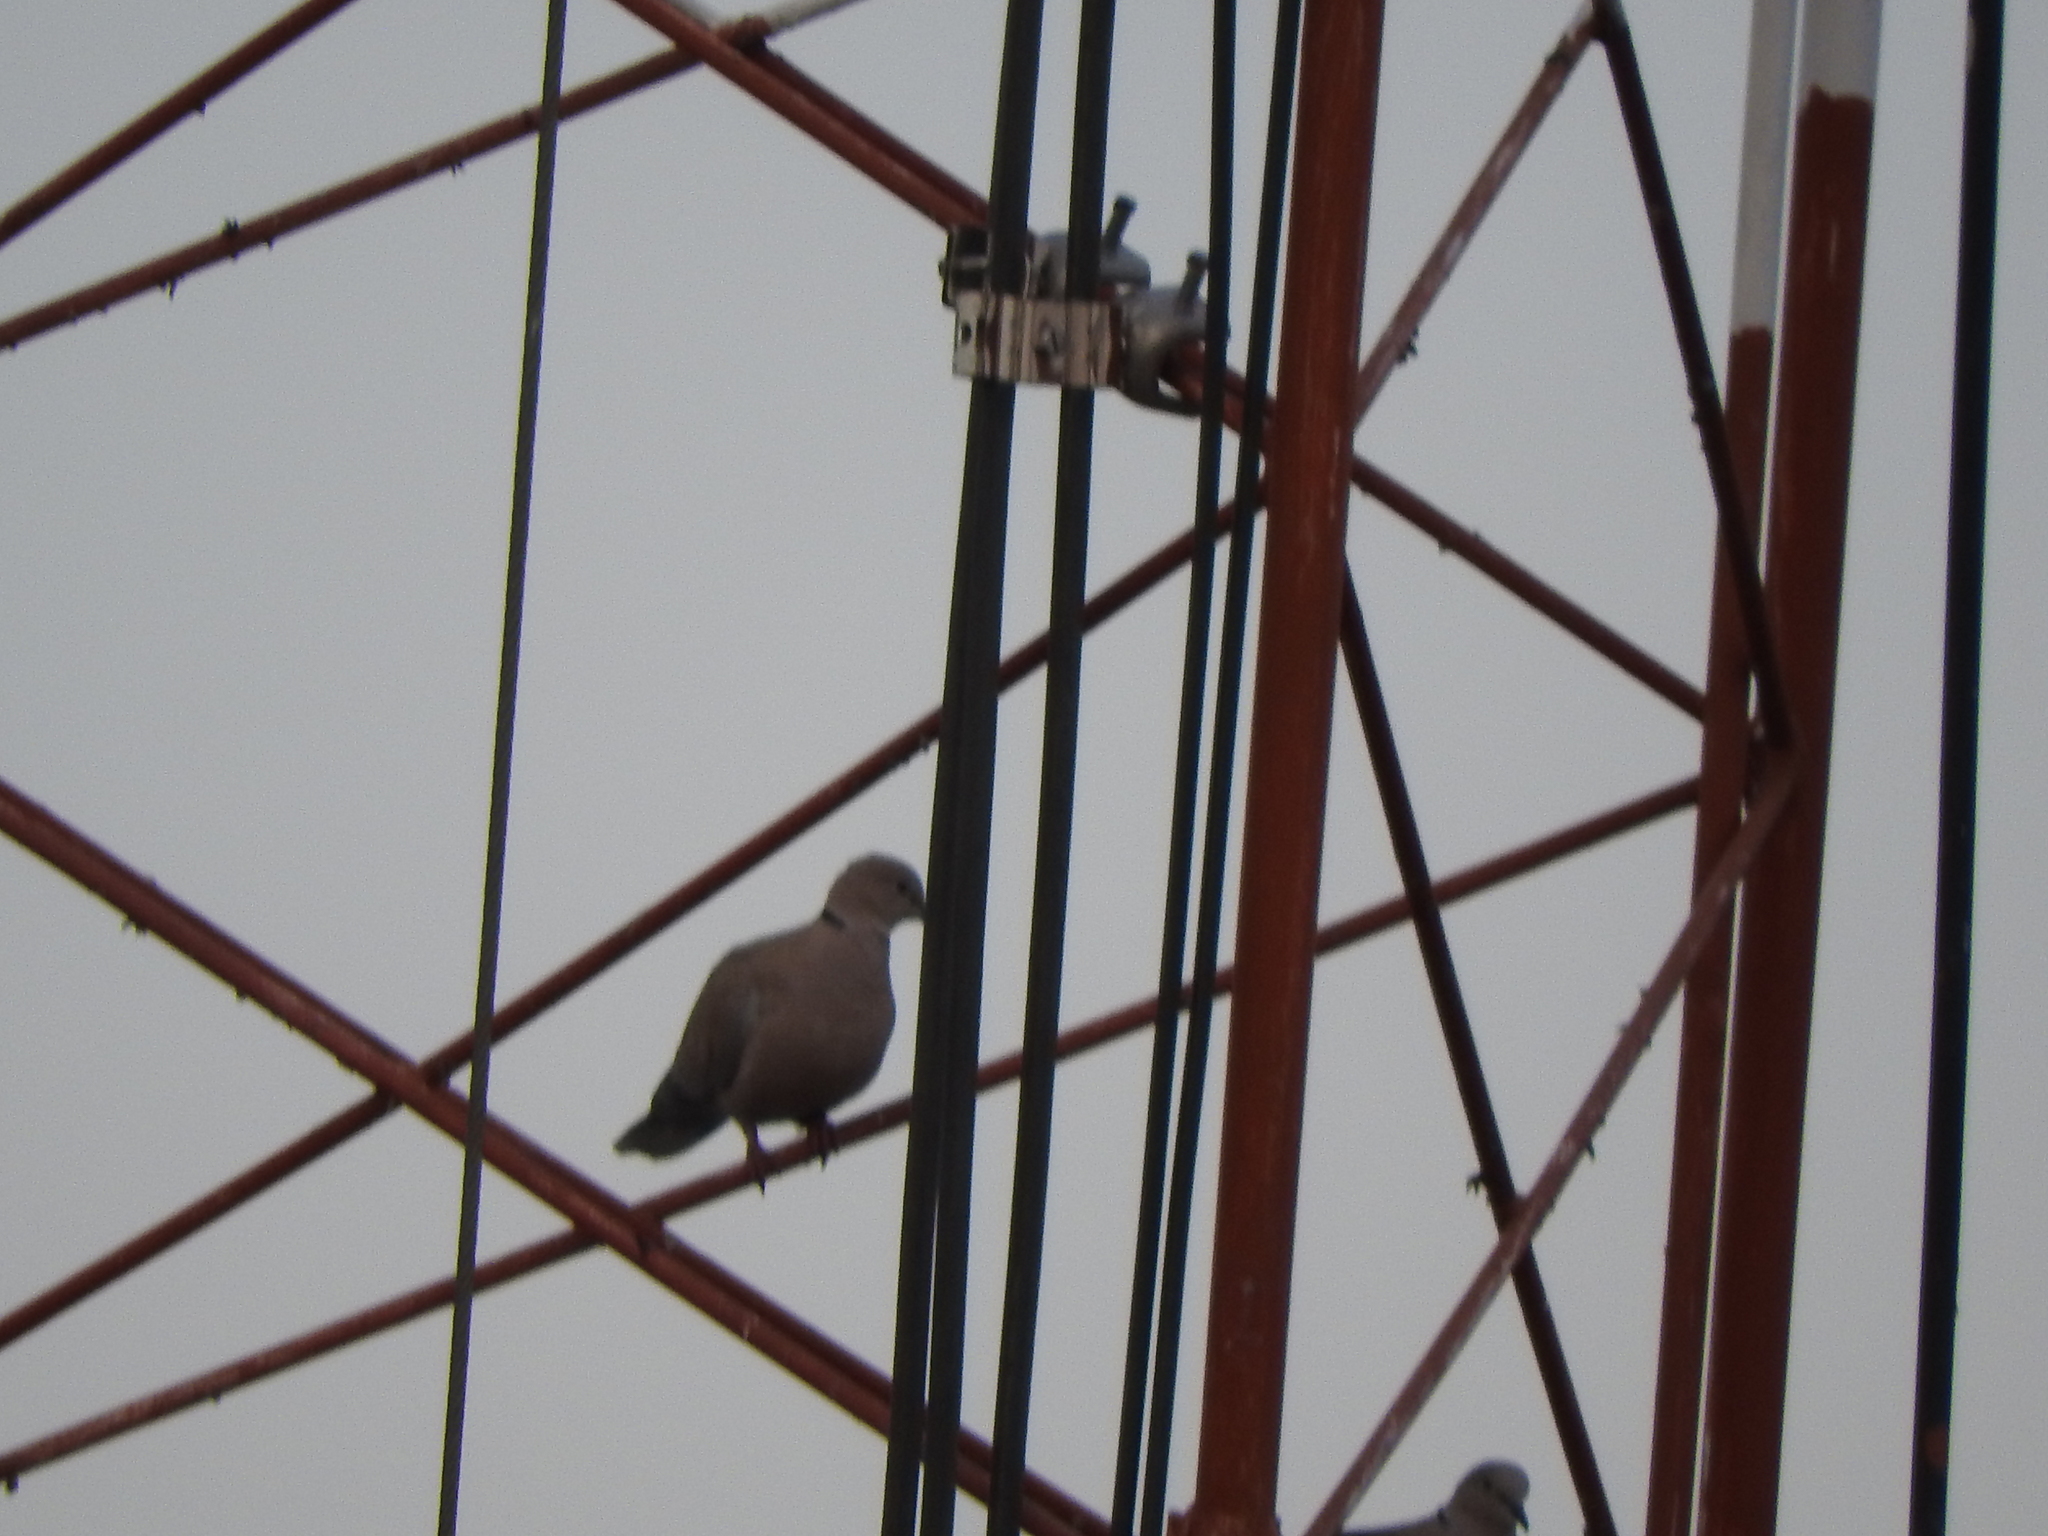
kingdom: Animalia
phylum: Chordata
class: Aves
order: Columbiformes
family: Columbidae
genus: Streptopelia
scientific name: Streptopelia decaocto
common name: Eurasian collared dove
